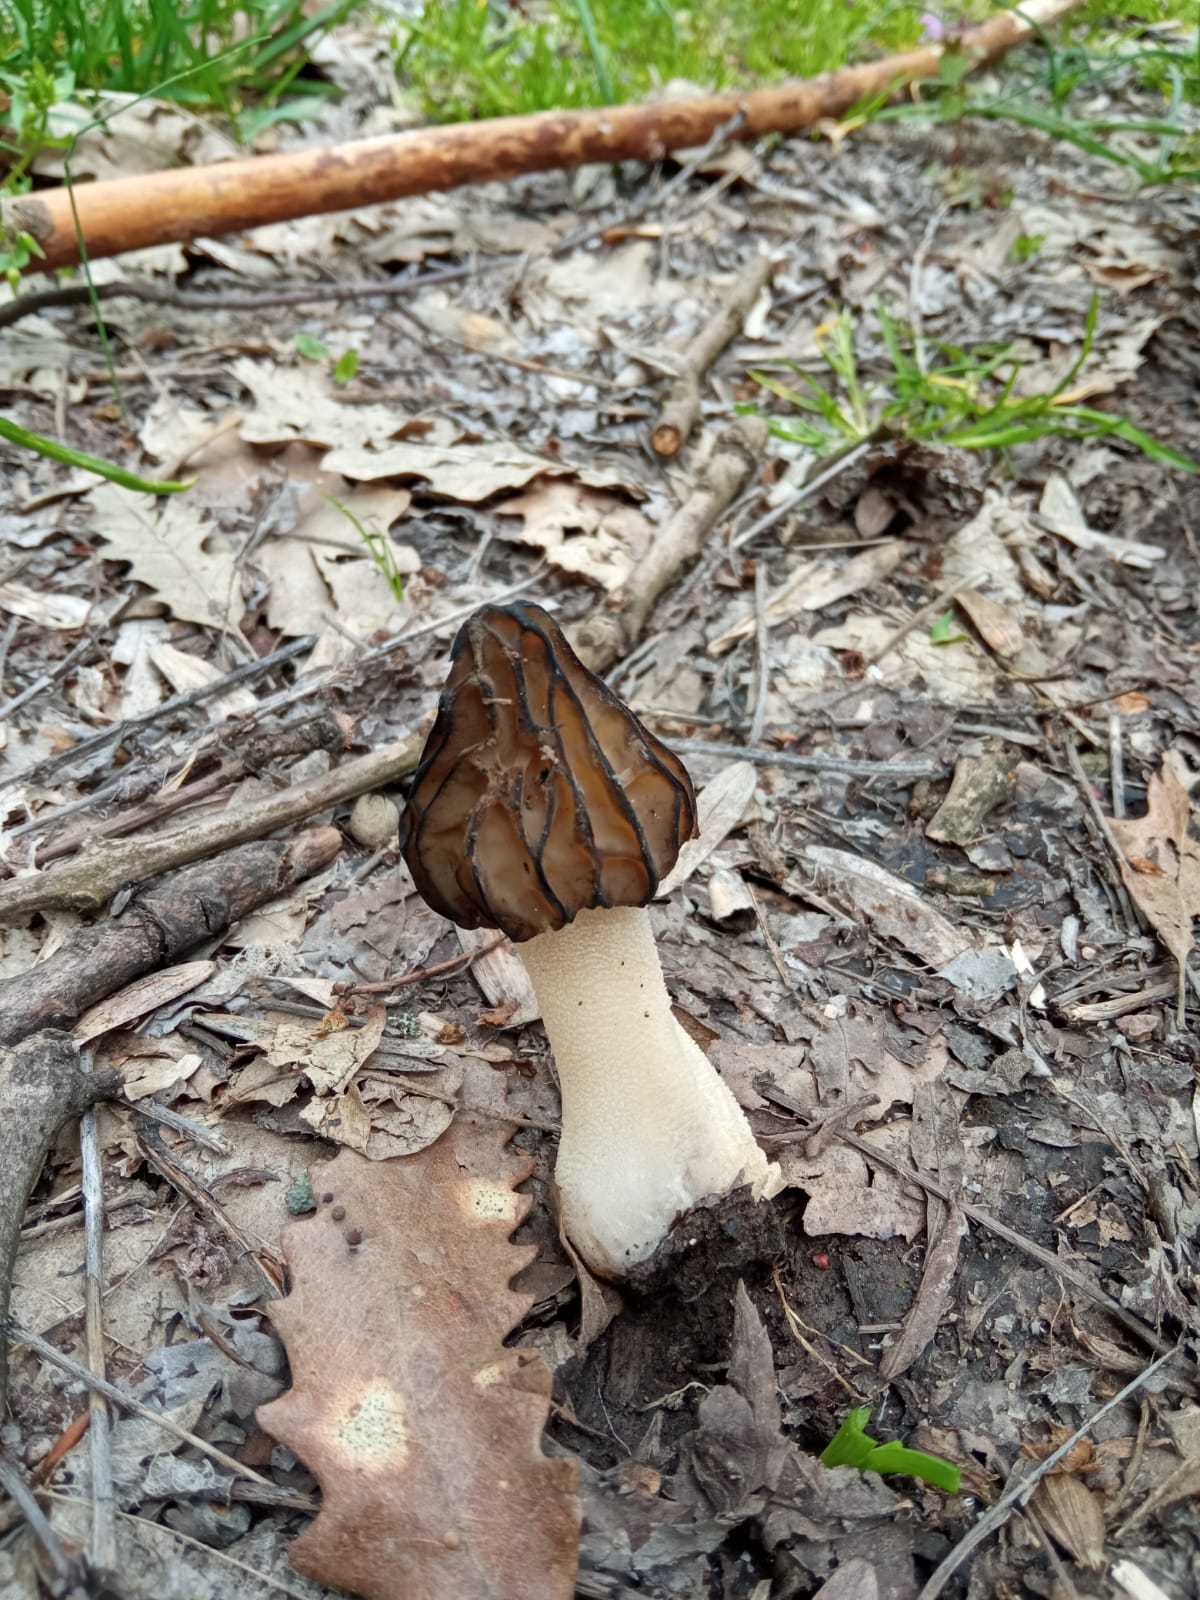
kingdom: Fungi
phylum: Ascomycota
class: Pezizomycetes
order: Pezizales
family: Morchellaceae
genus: Morchella
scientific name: Morchella semilibera
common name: Semifree morel
